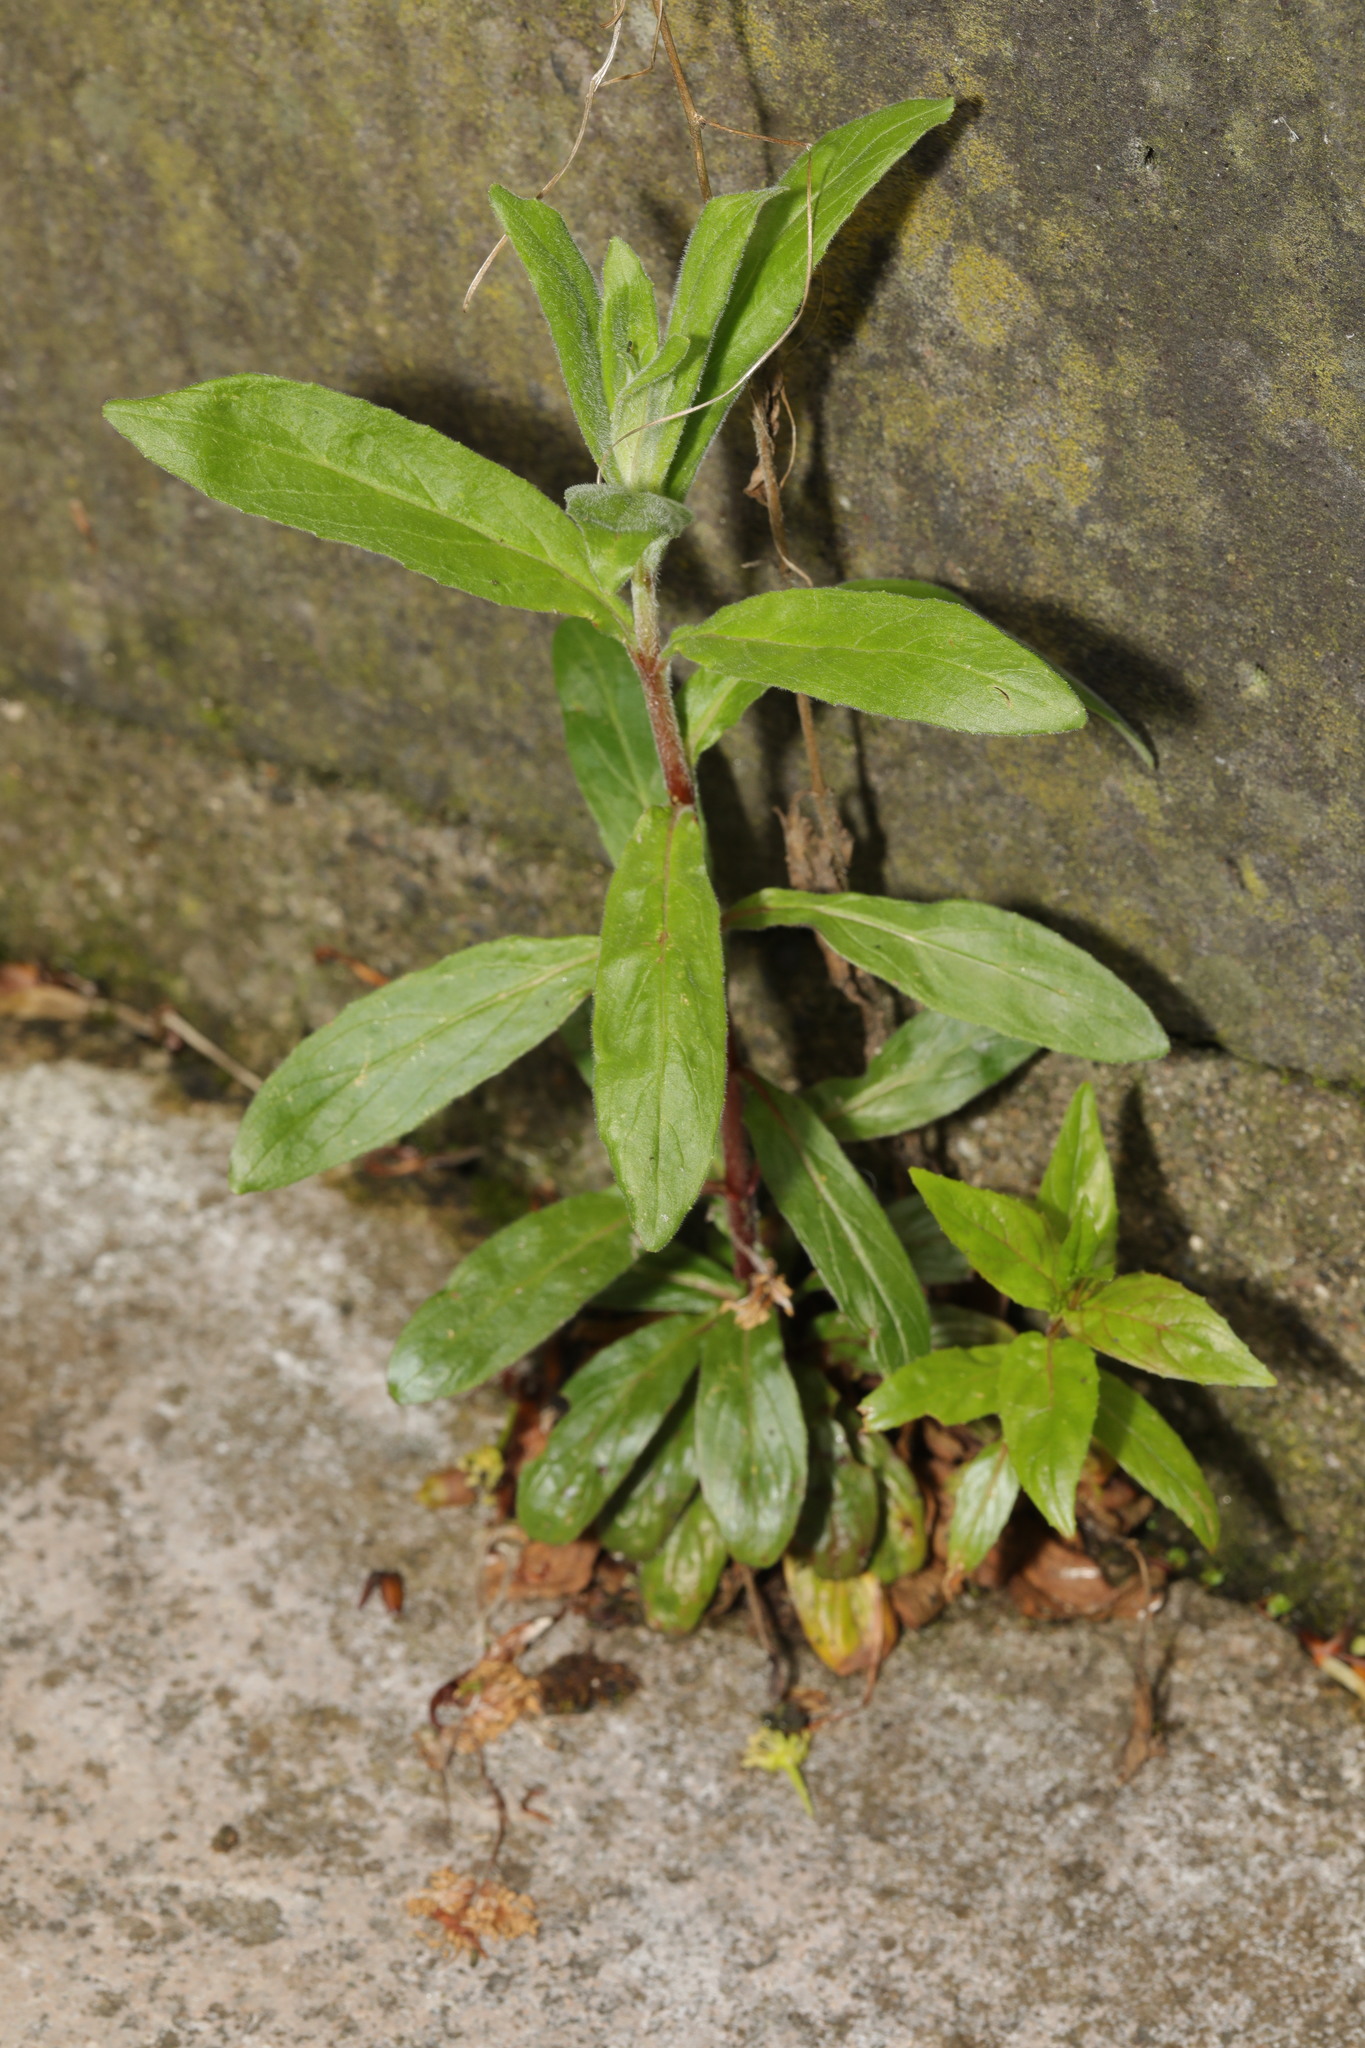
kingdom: Plantae
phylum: Tracheophyta
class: Magnoliopsida
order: Myrtales
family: Onagraceae
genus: Epilobium
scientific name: Epilobium parviflorum
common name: Hoary willowherb
